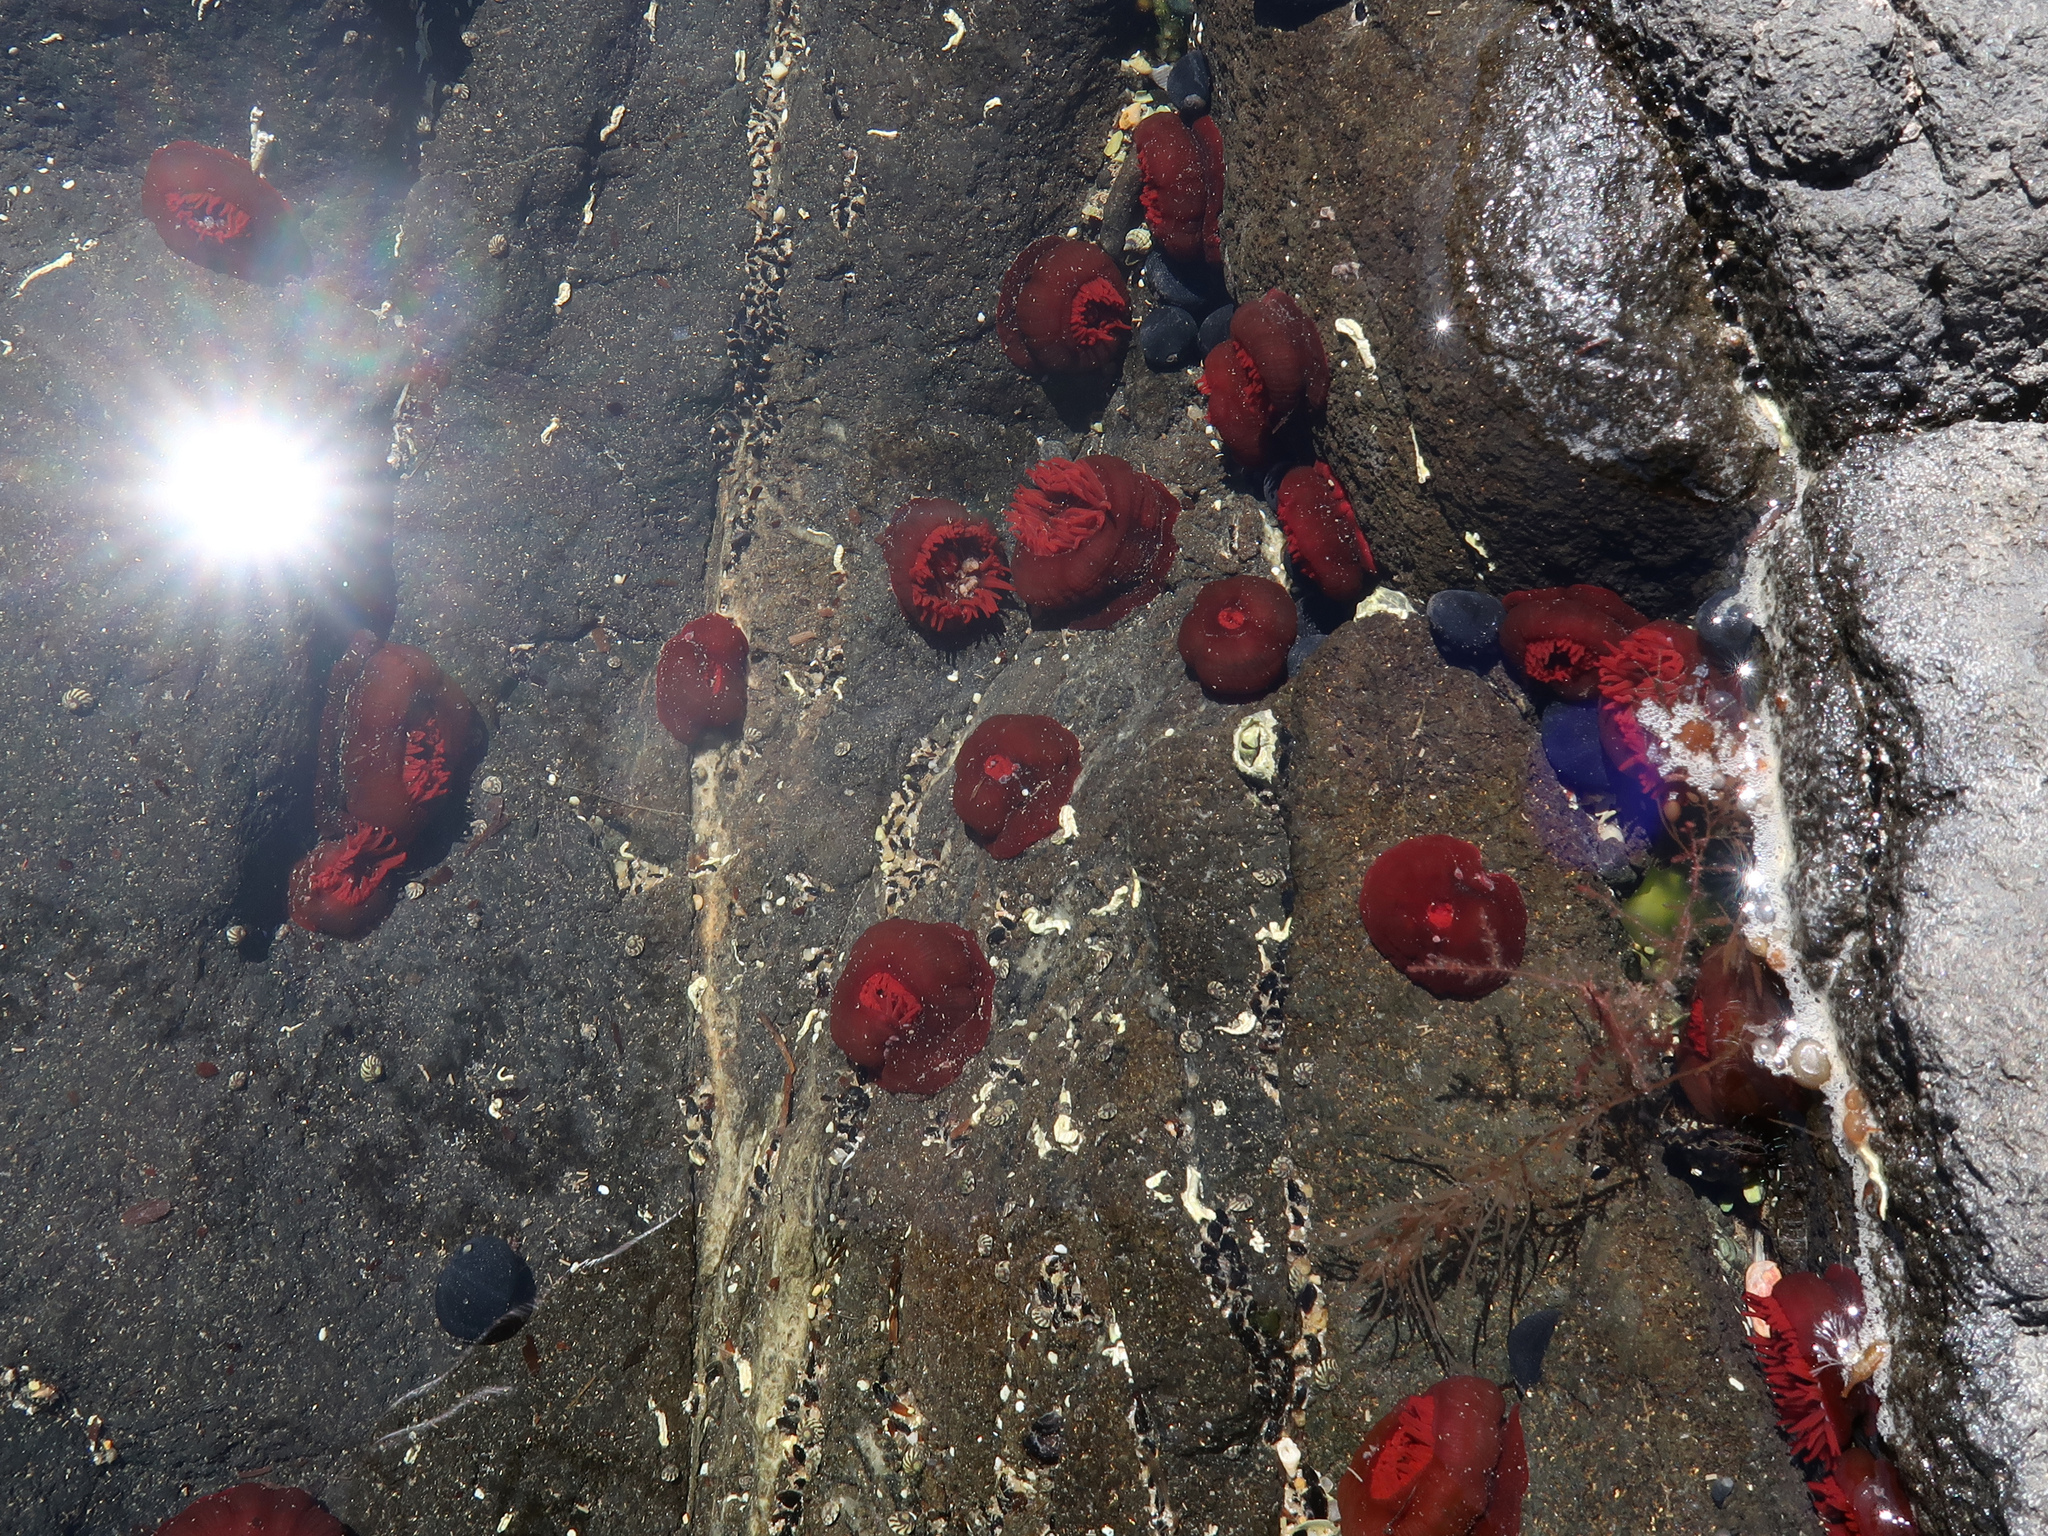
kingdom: Animalia
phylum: Cnidaria
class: Anthozoa
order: Actiniaria
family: Actiniidae
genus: Actinia
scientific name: Actinia tenebrosa
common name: Waratah anemone
